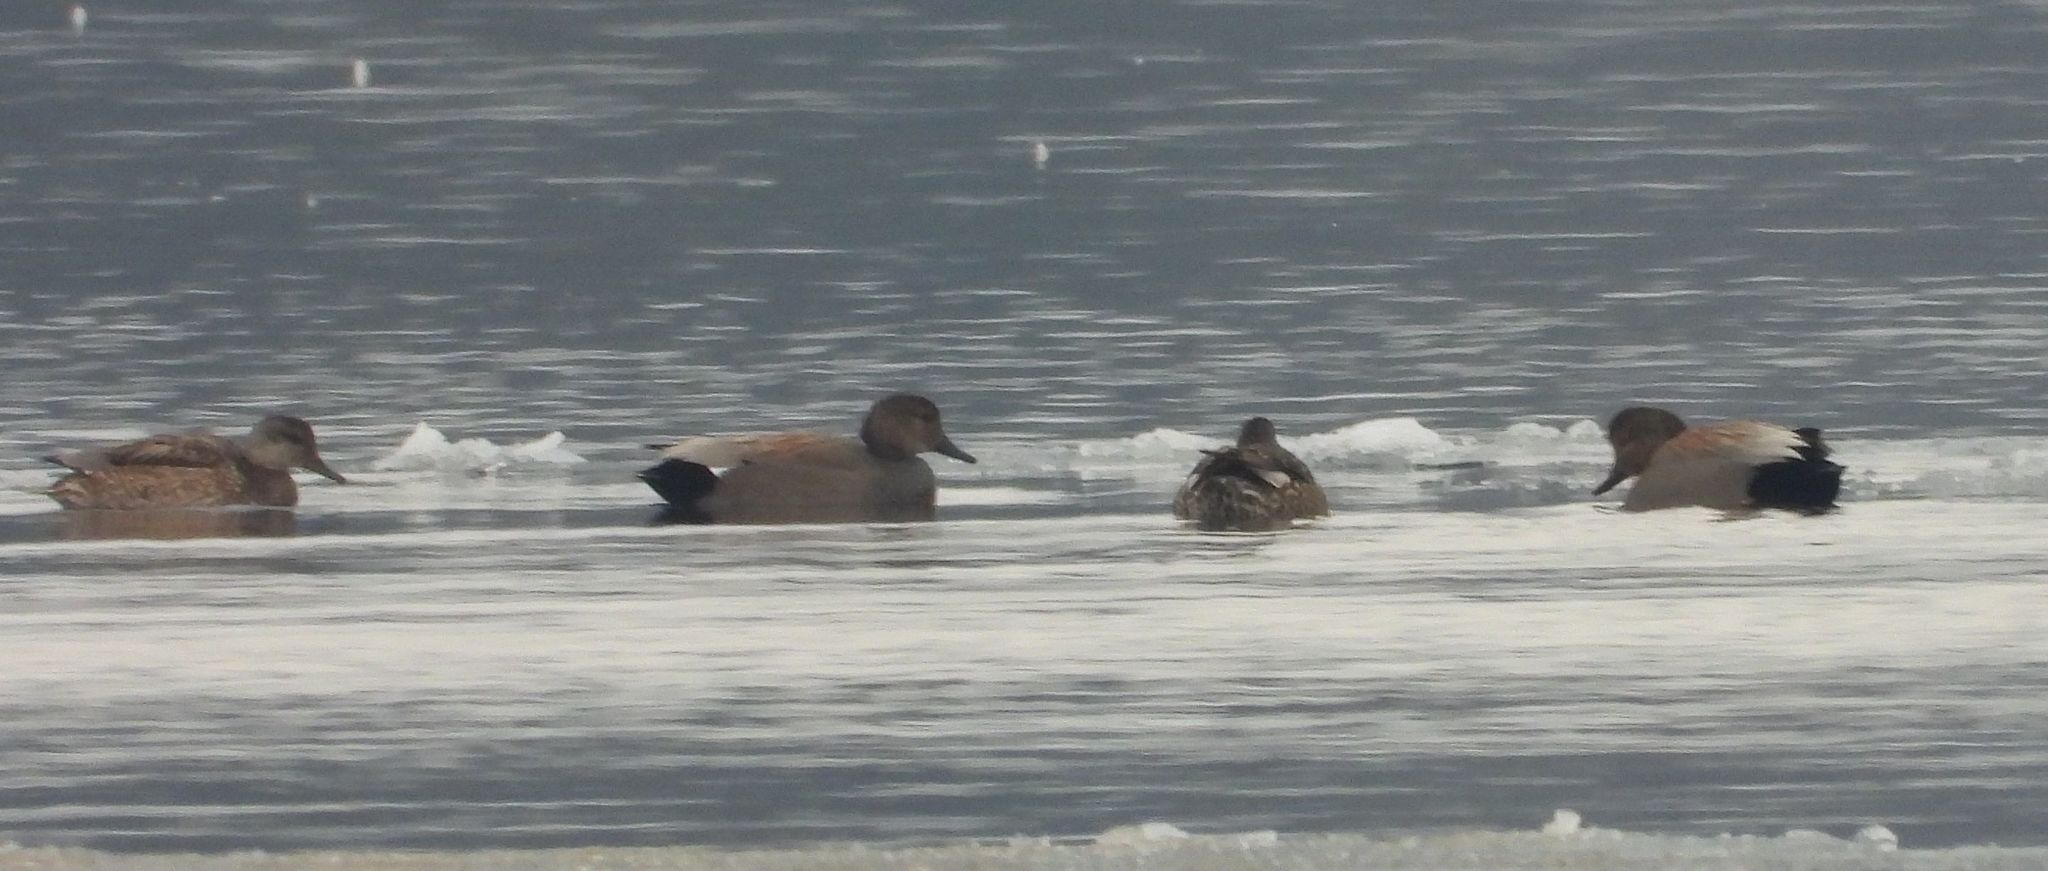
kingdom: Animalia
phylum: Chordata
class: Aves
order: Anseriformes
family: Anatidae
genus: Mareca
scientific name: Mareca strepera
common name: Gadwall
